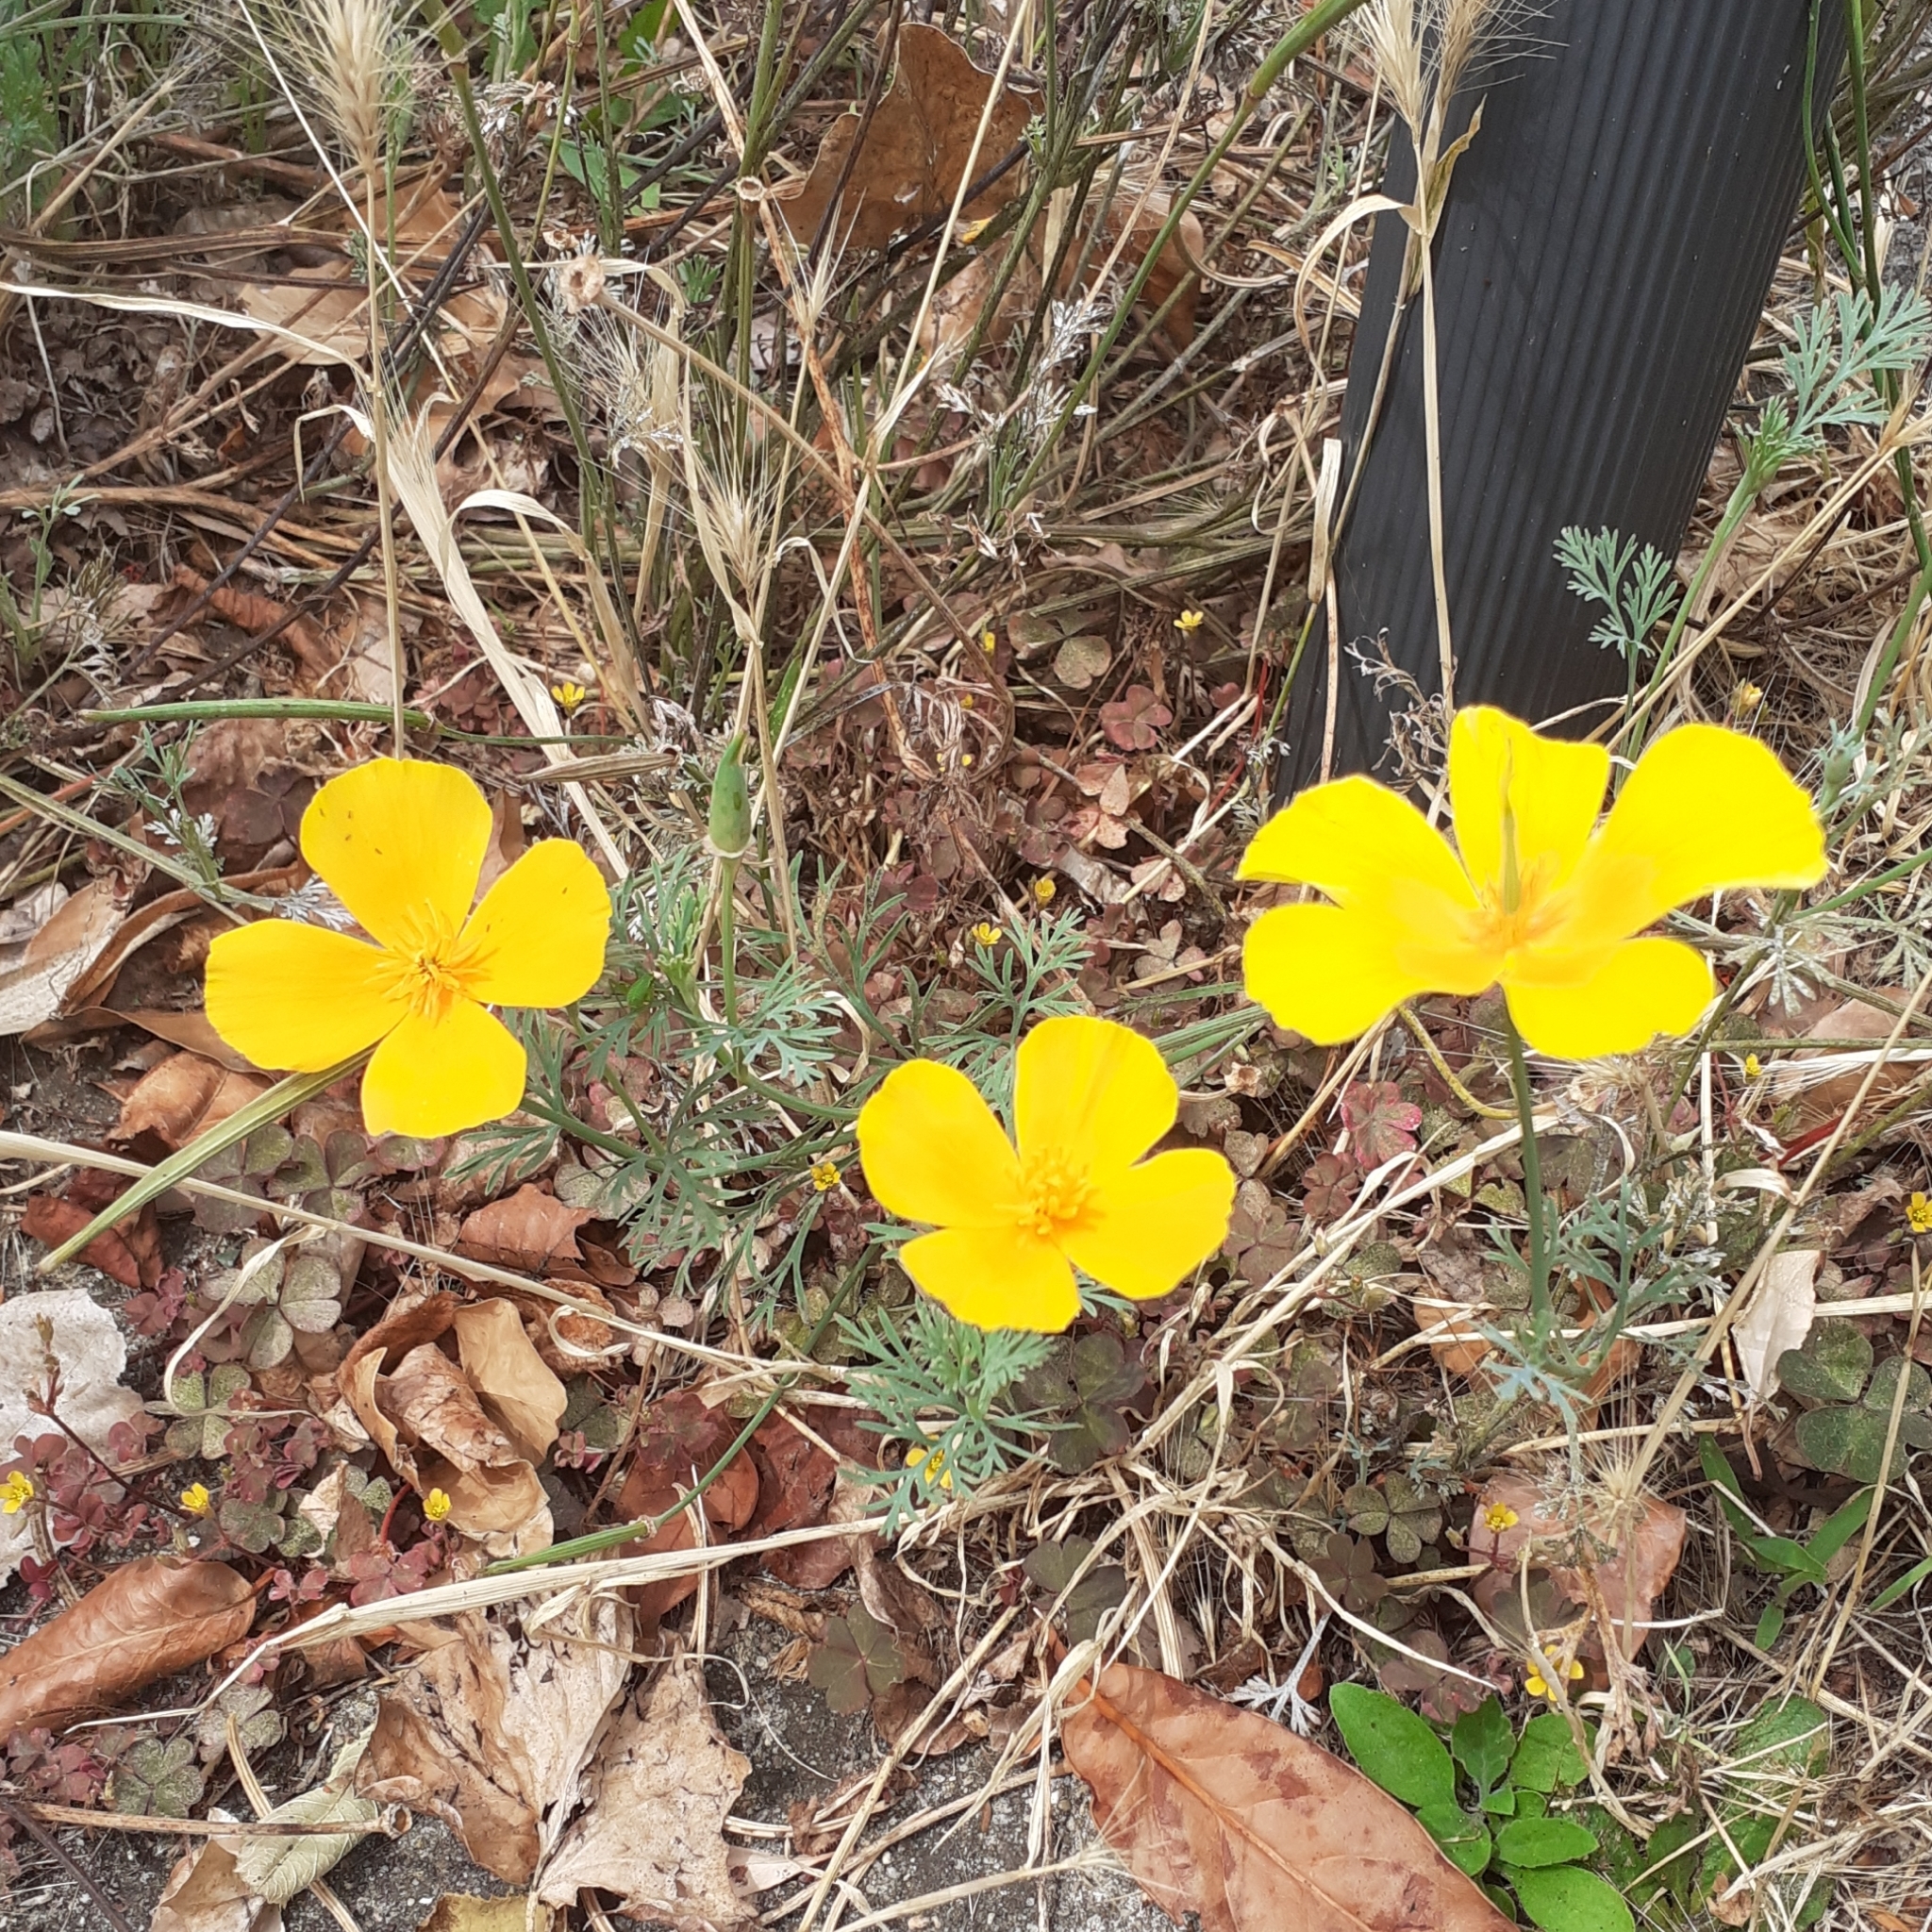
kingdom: Plantae
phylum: Tracheophyta
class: Magnoliopsida
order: Ranunculales
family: Papaveraceae
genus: Eschscholzia
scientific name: Eschscholzia californica
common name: California poppy
